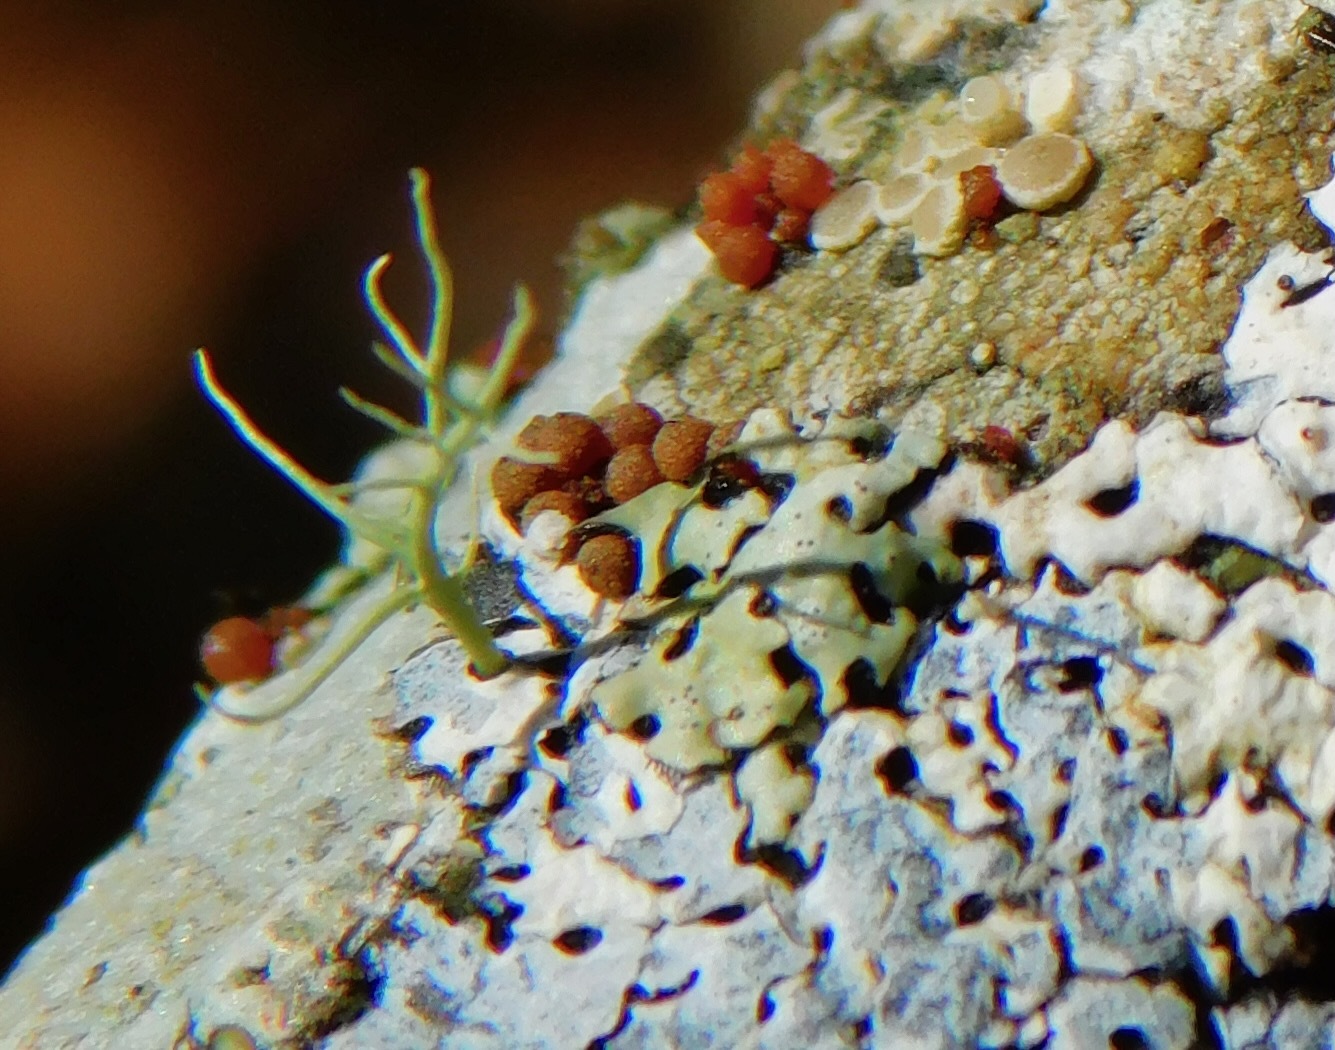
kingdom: Fungi
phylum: Ascomycota
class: Sordariomycetes
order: Hypocreales
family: Nectriaceae
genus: Nectria
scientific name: Nectria nigrescens
